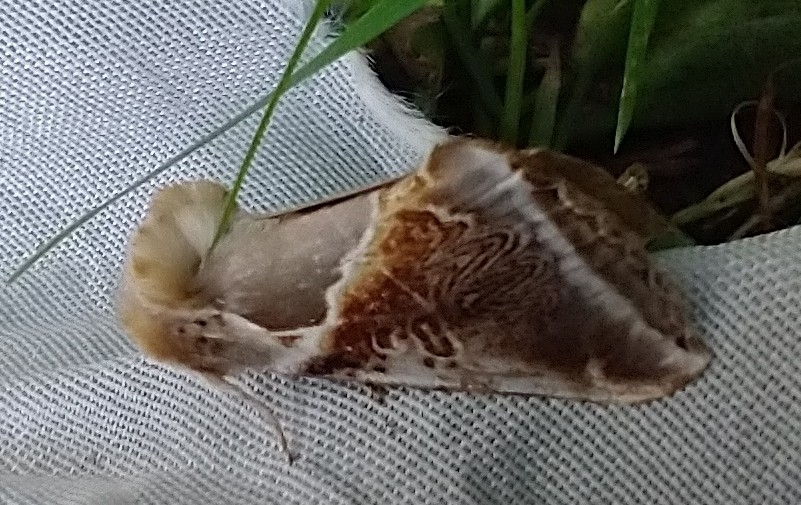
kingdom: Animalia
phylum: Arthropoda
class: Insecta
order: Lepidoptera
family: Drepanidae
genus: Habrosyne
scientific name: Habrosyne pyritoides
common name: Buff arches
